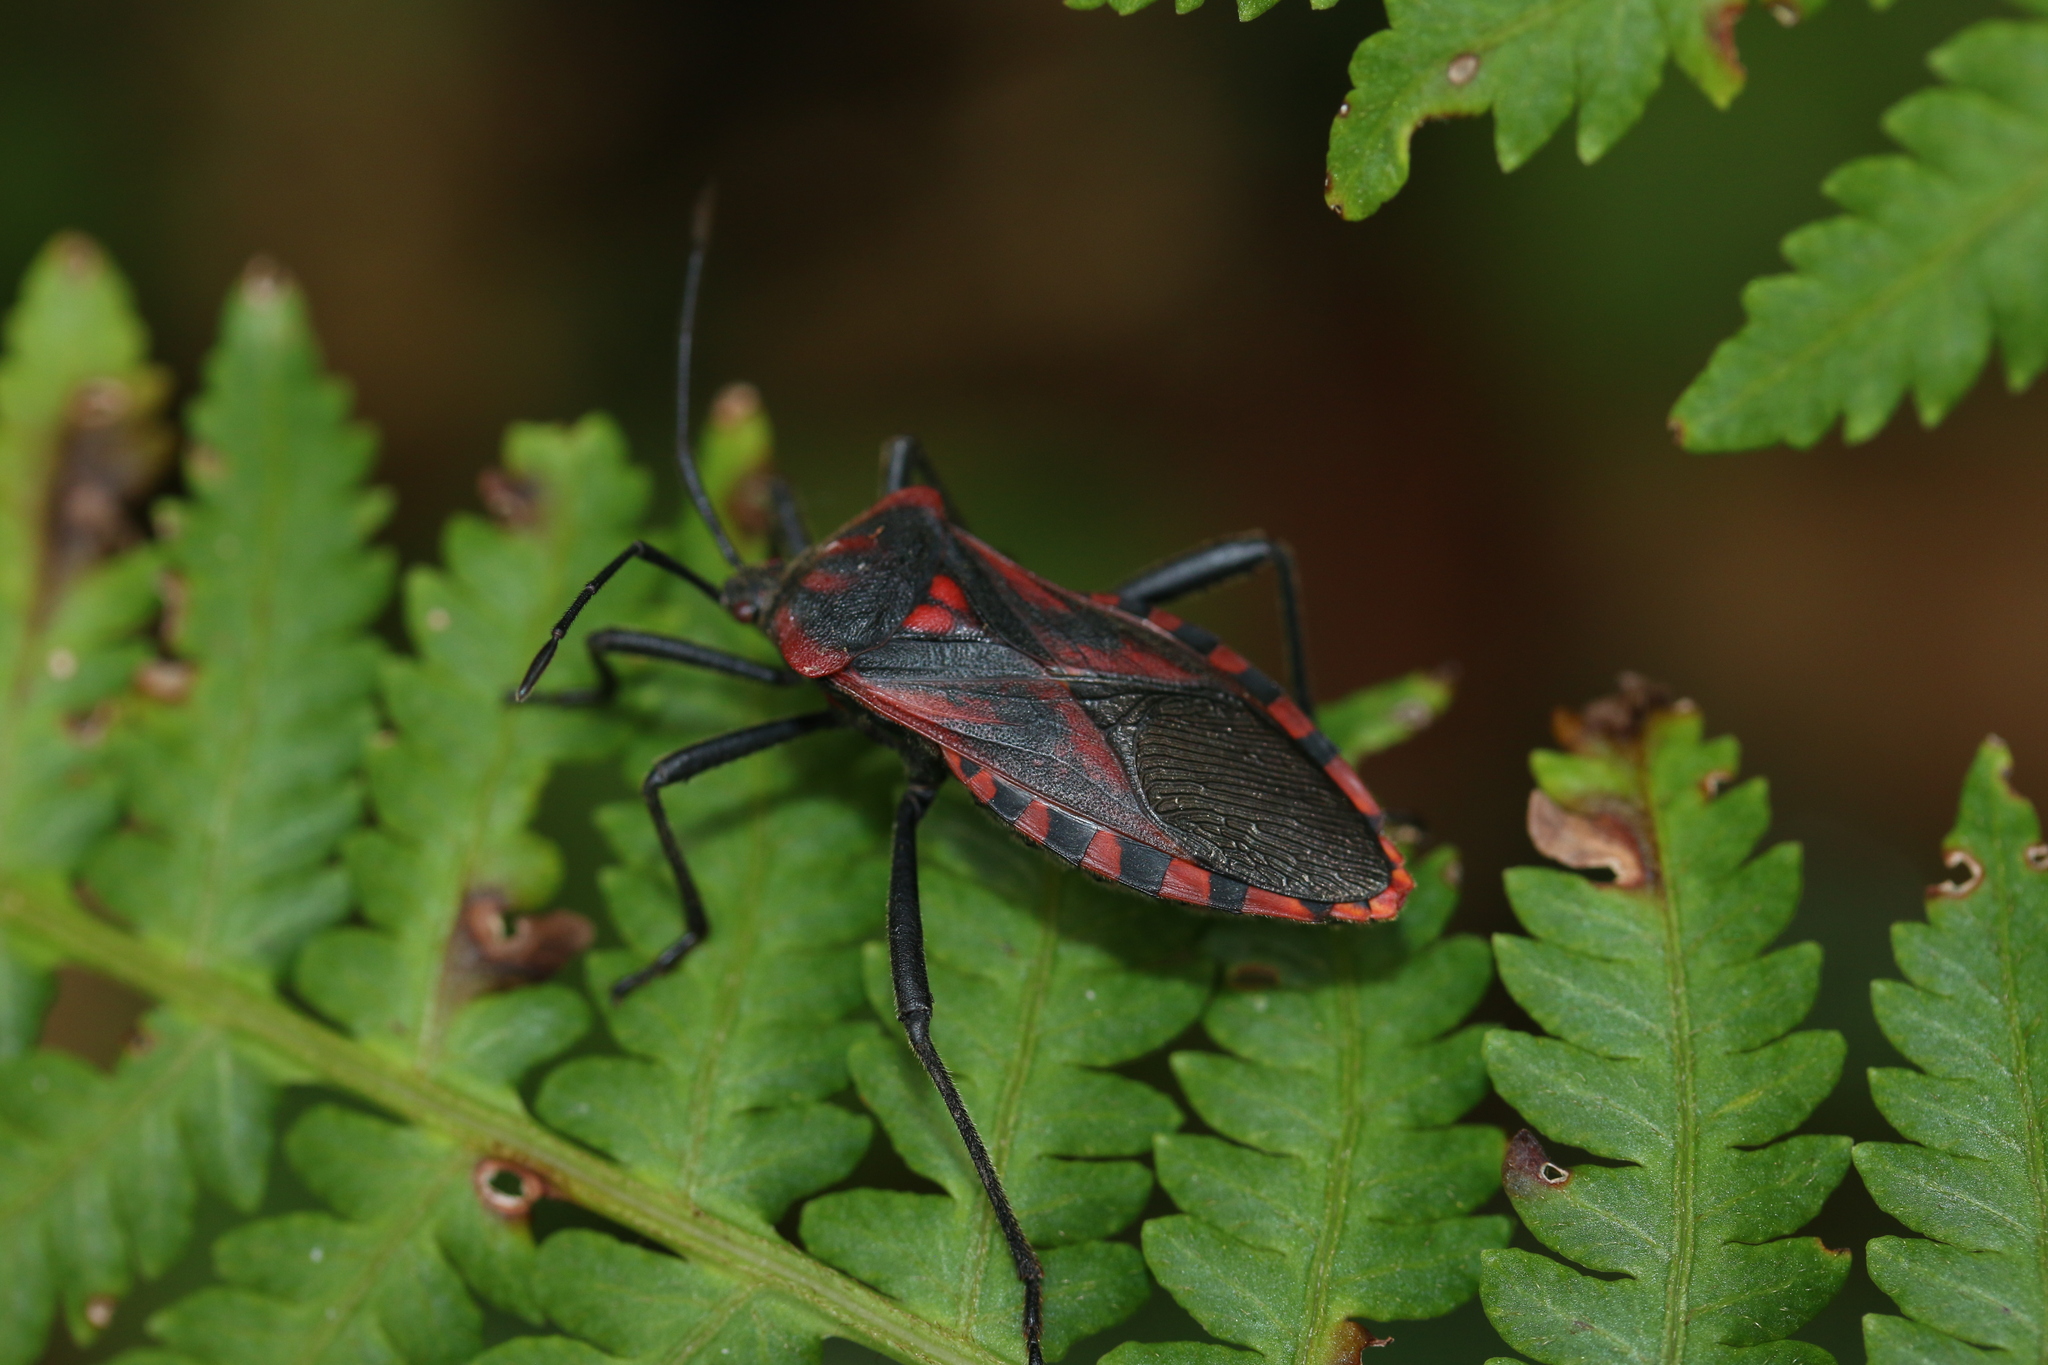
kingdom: Animalia
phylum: Arthropoda
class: Insecta
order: Hemiptera
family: Coreidae
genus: Piezogaster
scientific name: Piezogaster rubropictus
